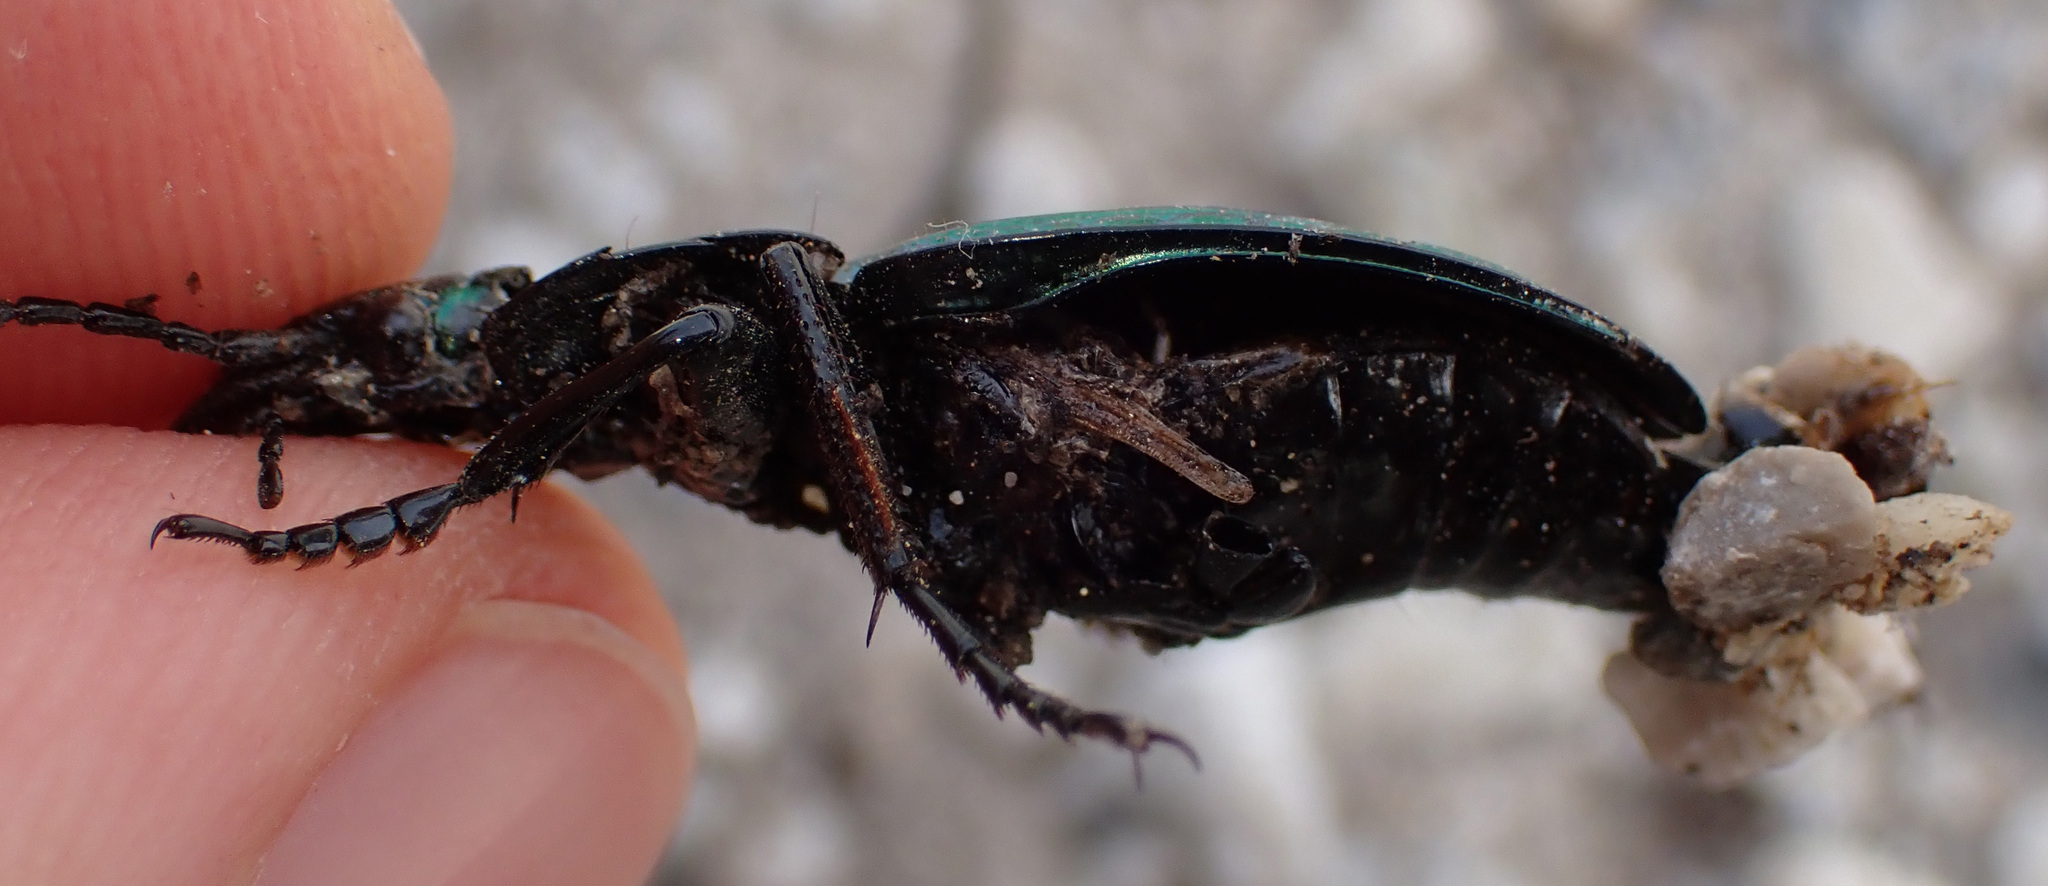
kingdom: Animalia
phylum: Arthropoda
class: Insecta
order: Coleoptera
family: Carabidae
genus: Carabus
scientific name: Carabus ulrichii
